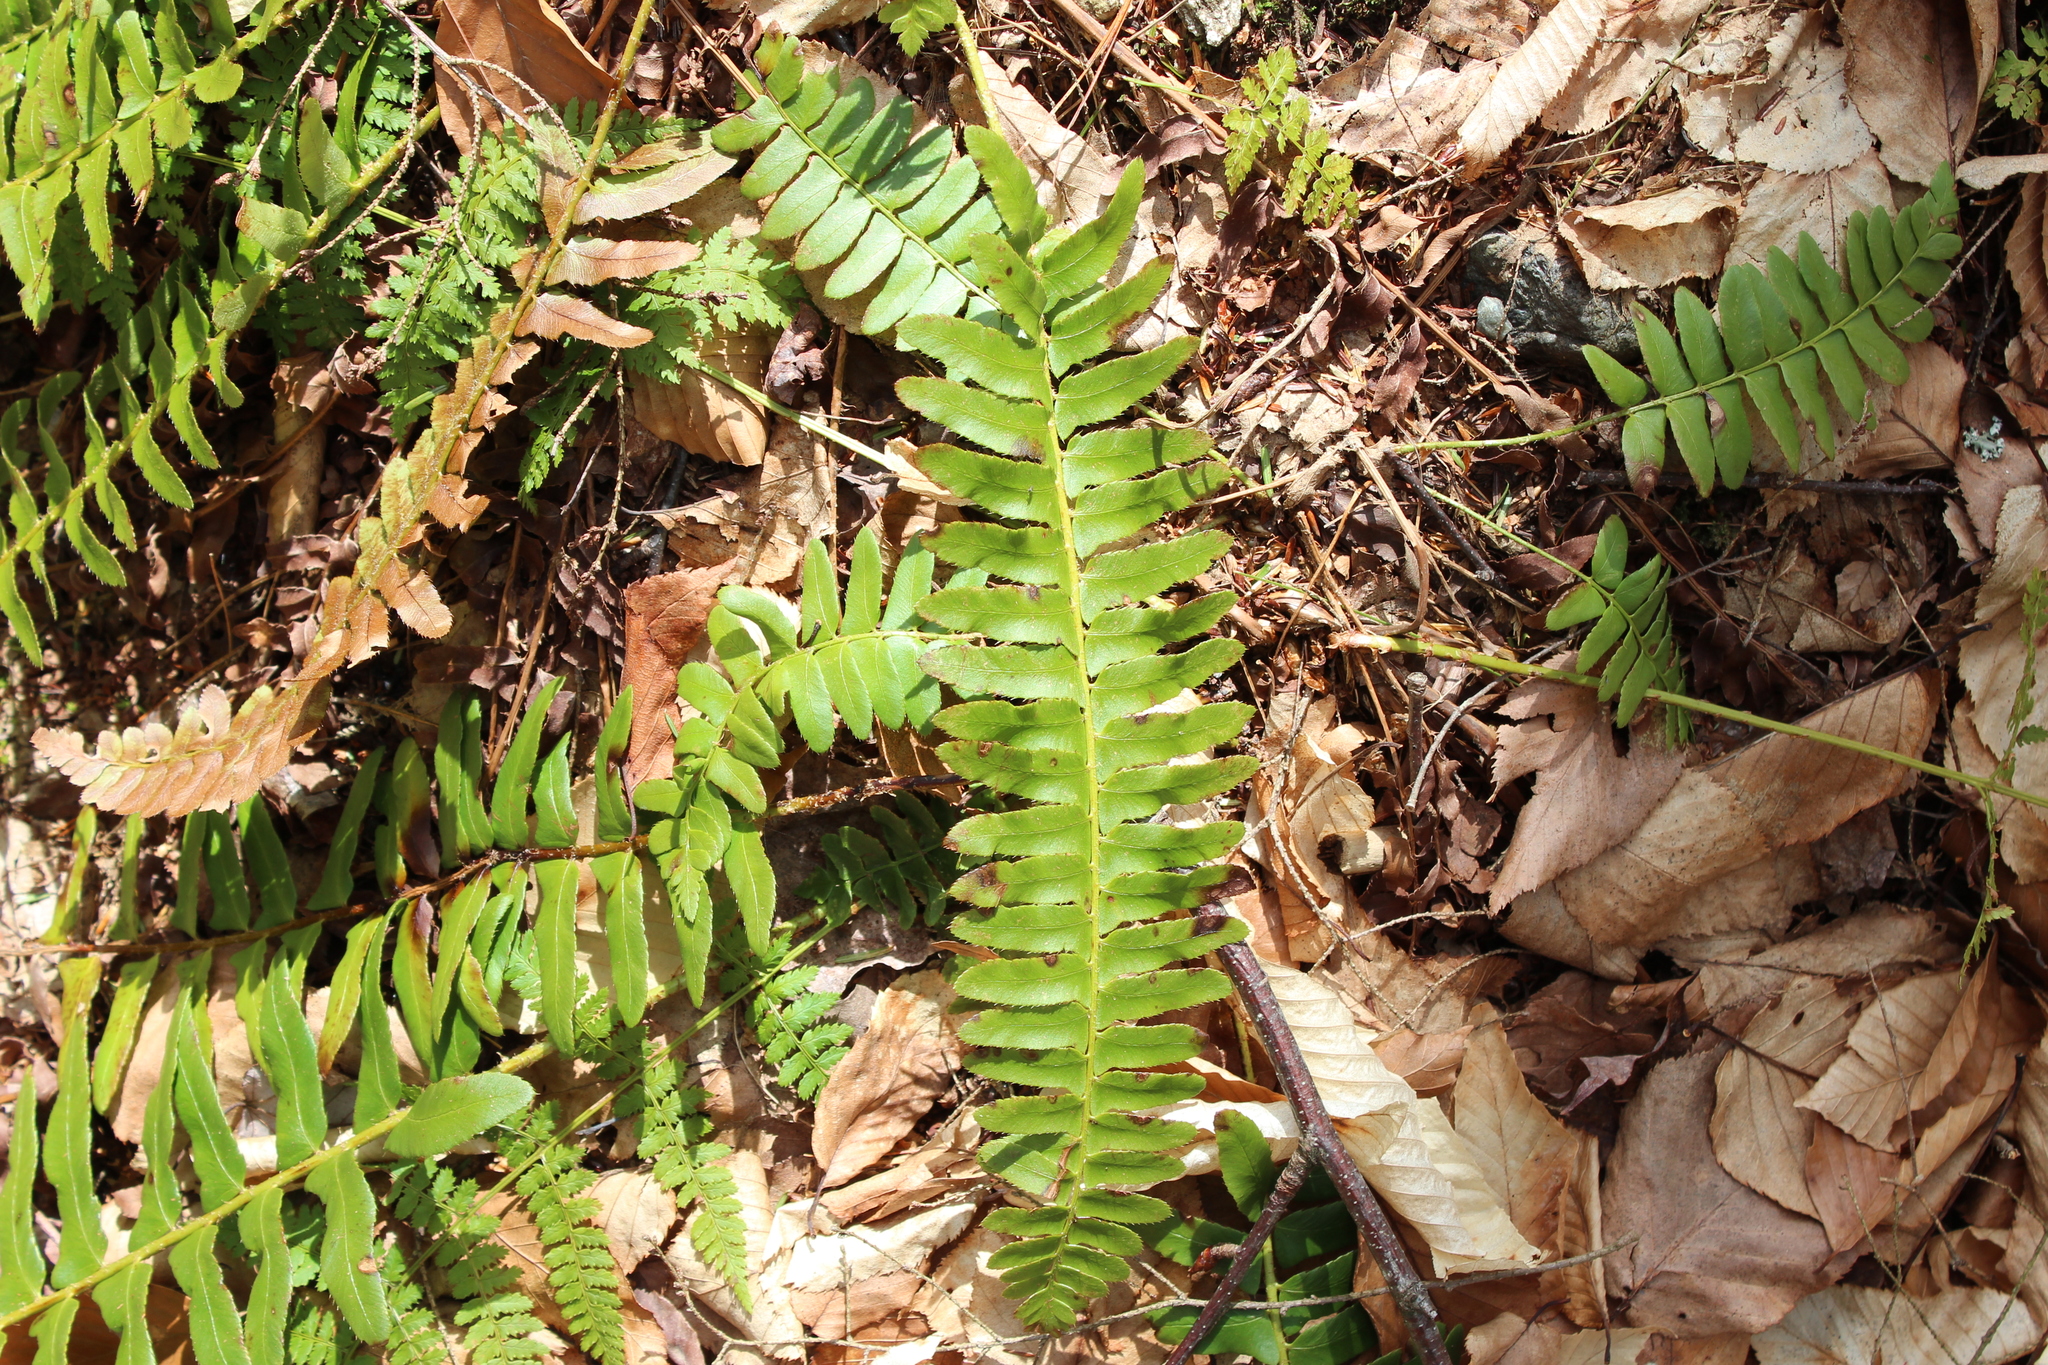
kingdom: Plantae
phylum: Tracheophyta
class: Polypodiopsida
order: Polypodiales
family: Dryopteridaceae
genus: Polystichum
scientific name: Polystichum acrostichoides
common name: Christmas fern
